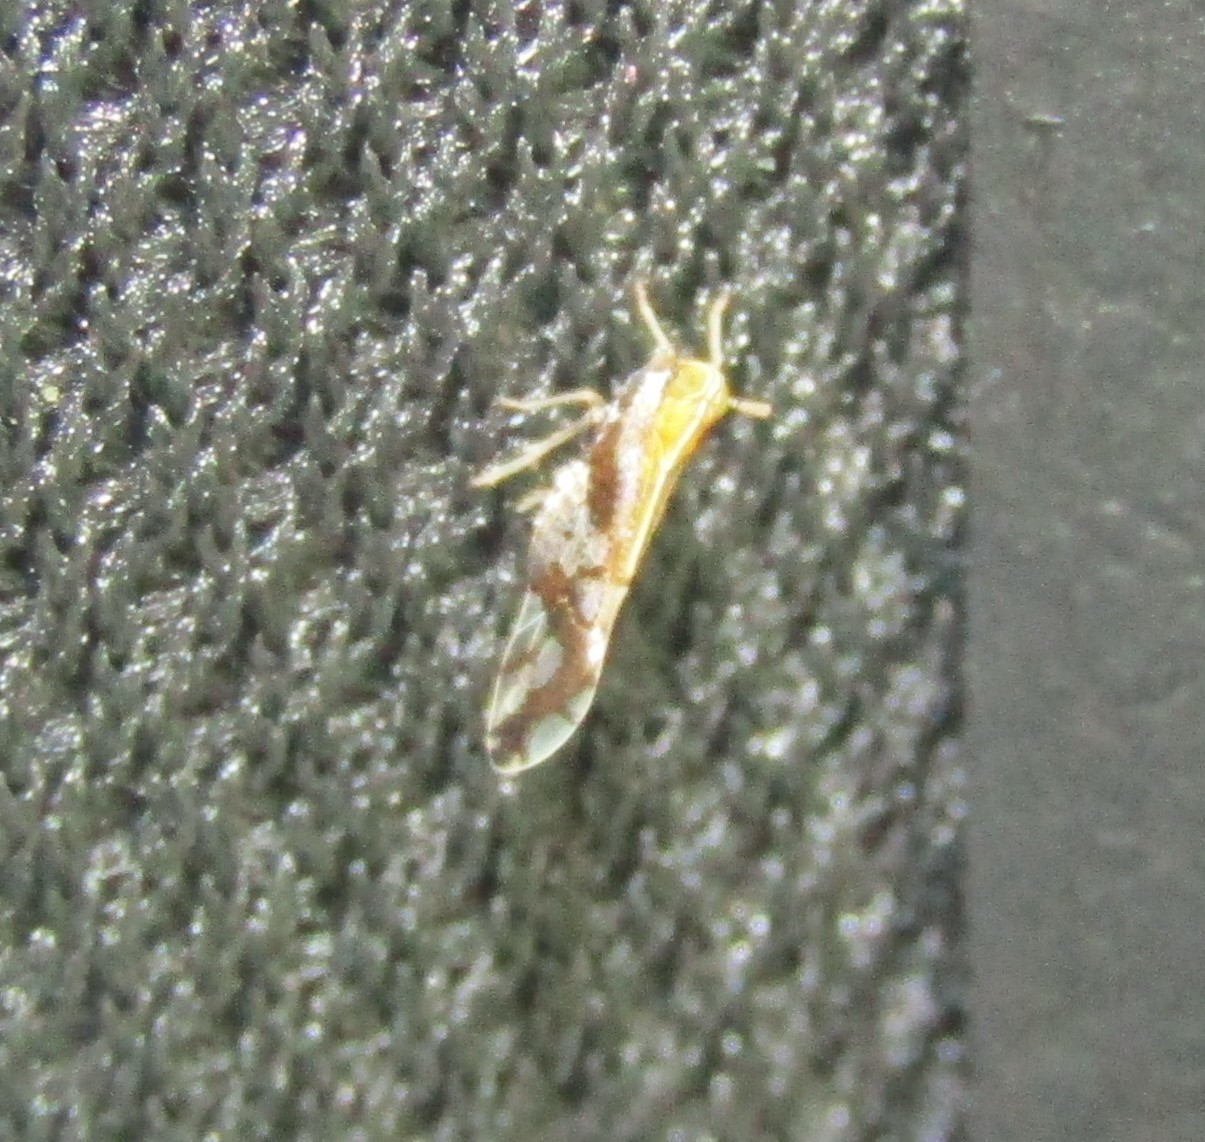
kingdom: Animalia
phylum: Arthropoda
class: Insecta
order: Hemiptera
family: Delphacidae
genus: Liburniella
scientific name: Liburniella ornata
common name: Ornate planthopper
